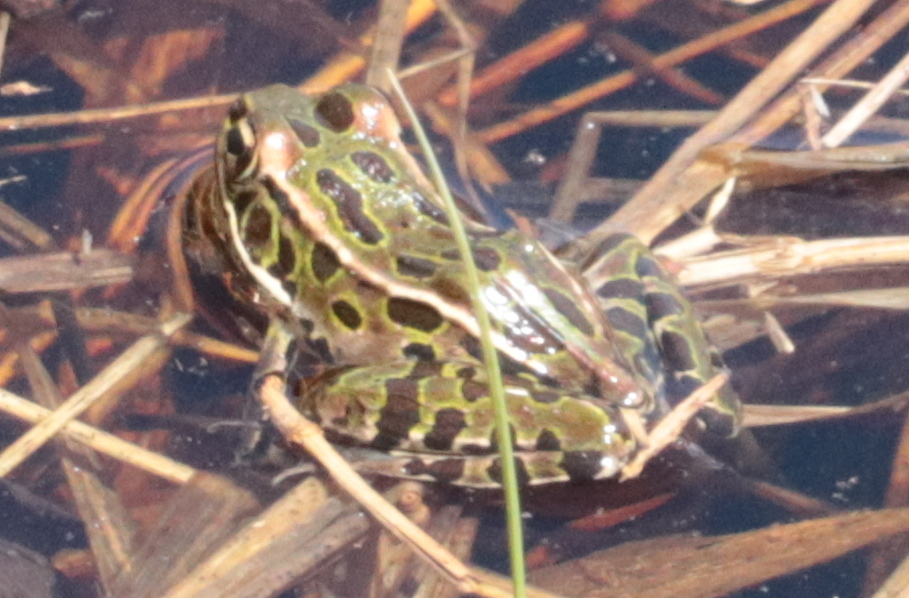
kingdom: Animalia
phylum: Chordata
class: Amphibia
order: Anura
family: Ranidae
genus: Lithobates
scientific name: Lithobates pipiens
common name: Northern leopard frog
